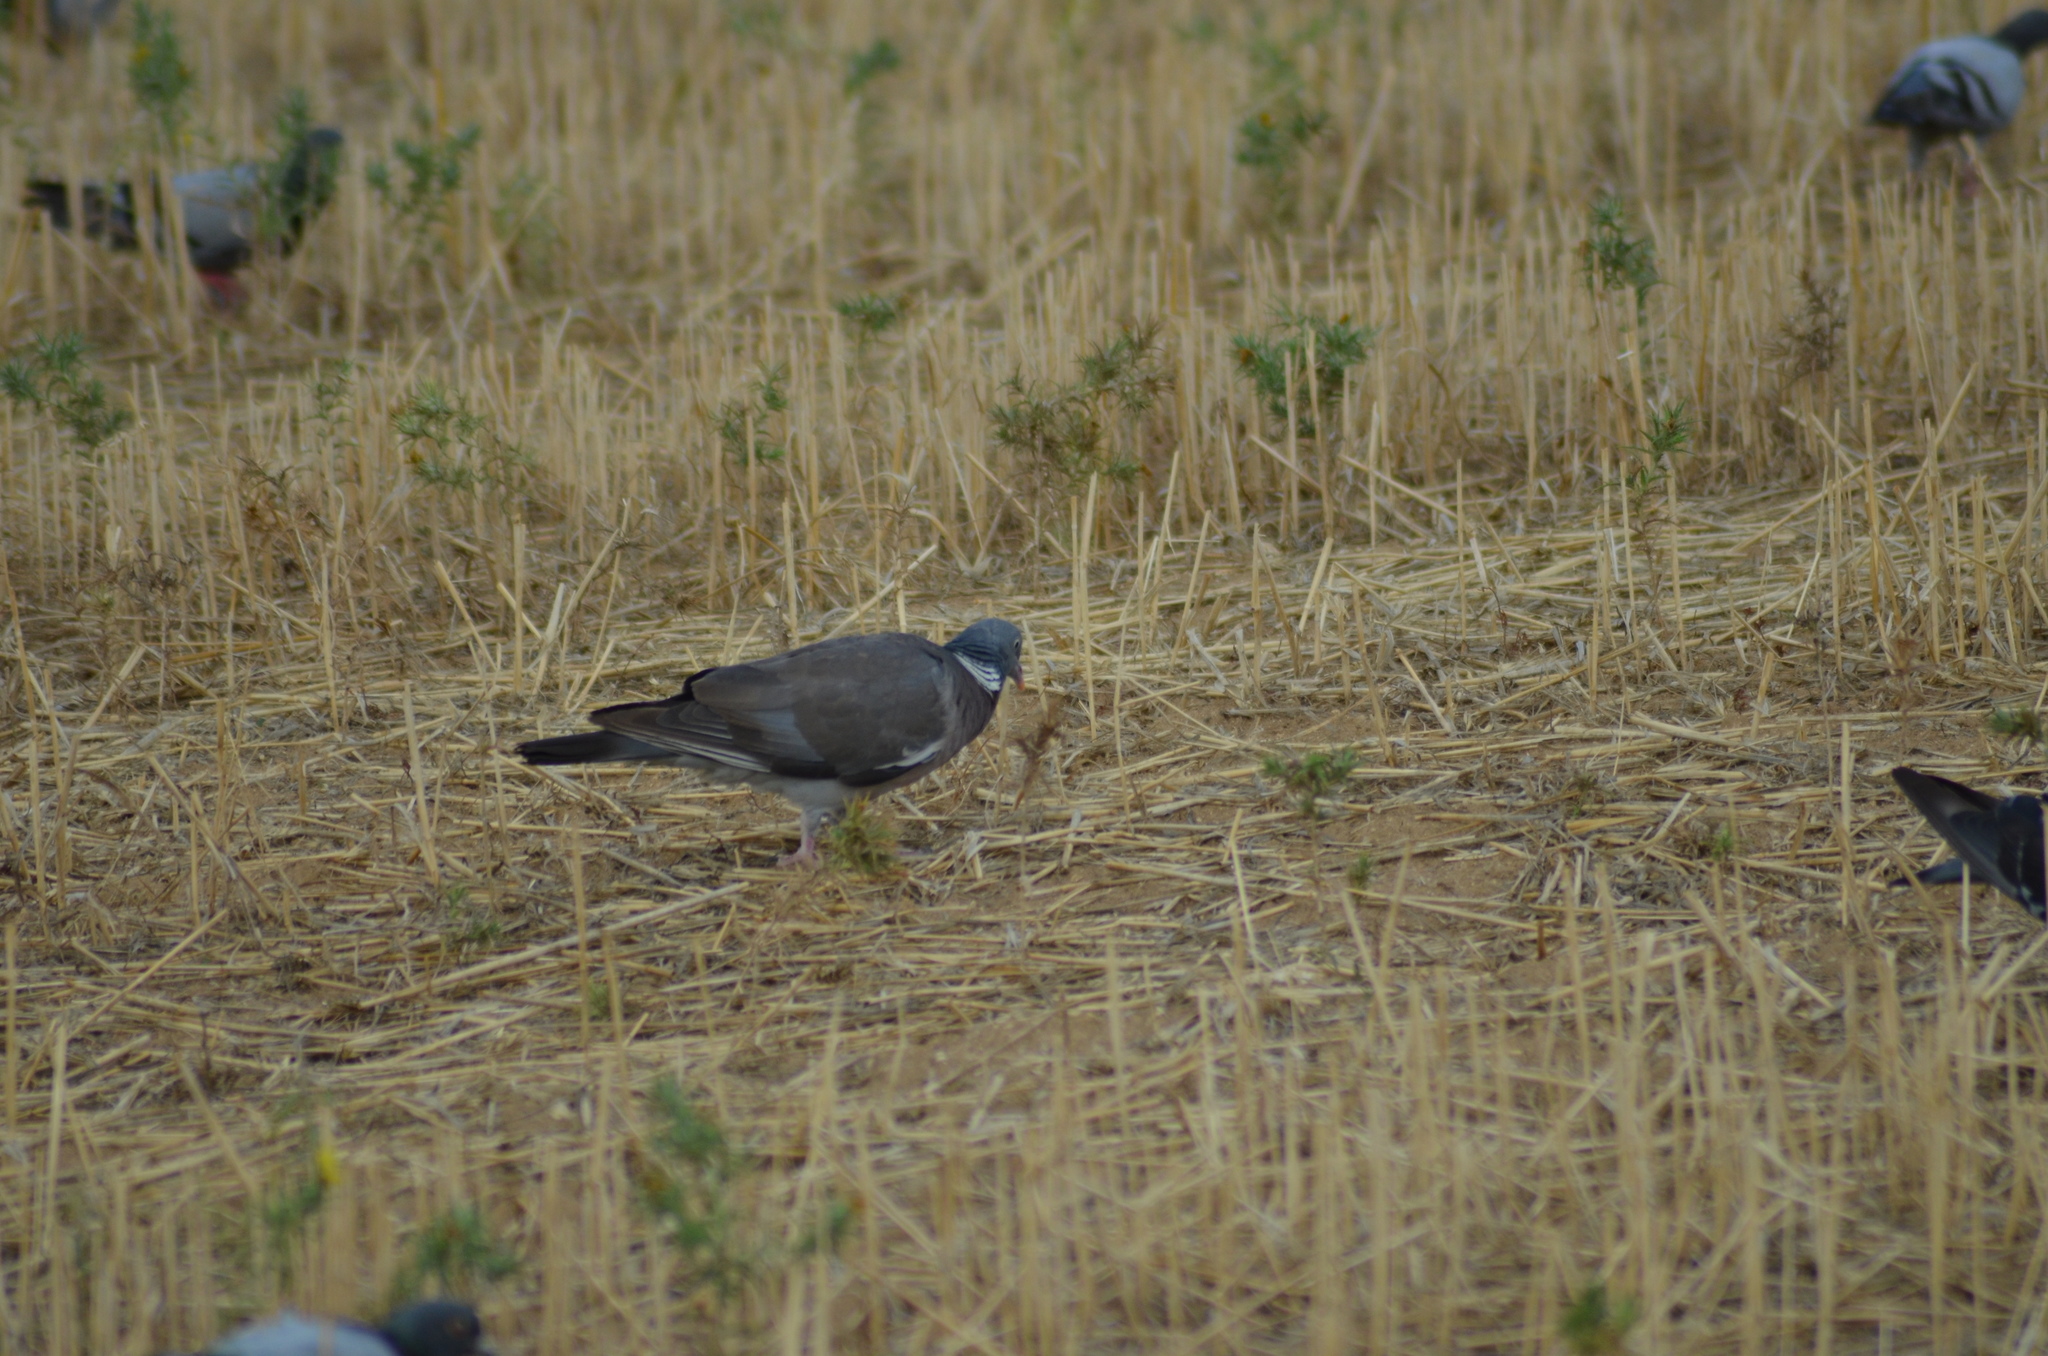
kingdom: Animalia
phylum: Chordata
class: Aves
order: Columbiformes
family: Columbidae
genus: Columba
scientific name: Columba palumbus
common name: Common wood pigeon
